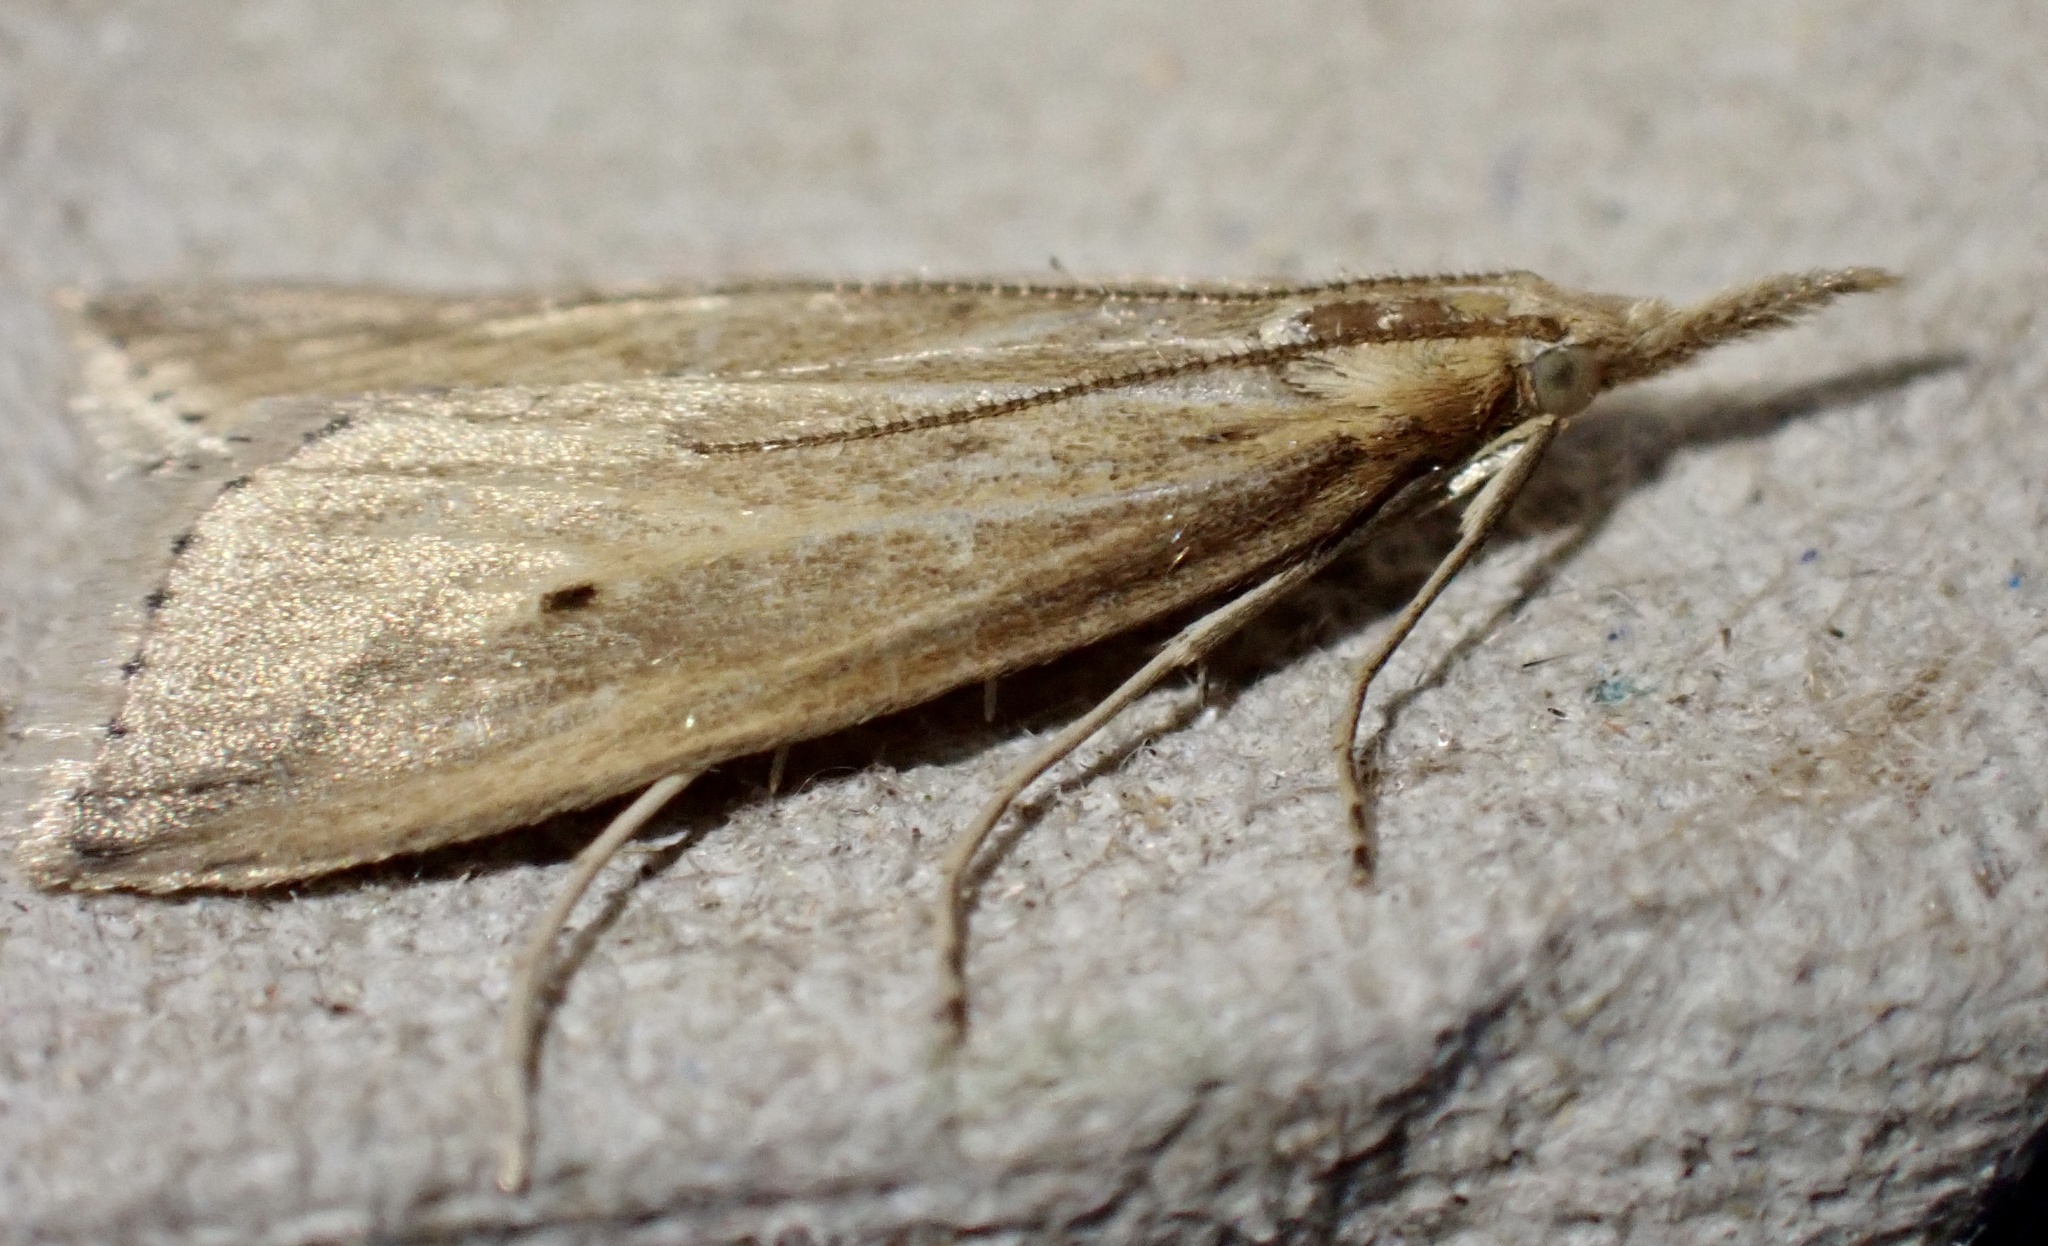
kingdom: Animalia
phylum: Arthropoda
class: Insecta
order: Lepidoptera
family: Crambidae
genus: Donacaula
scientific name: Donacaula forficella
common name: Pale water-veneer
